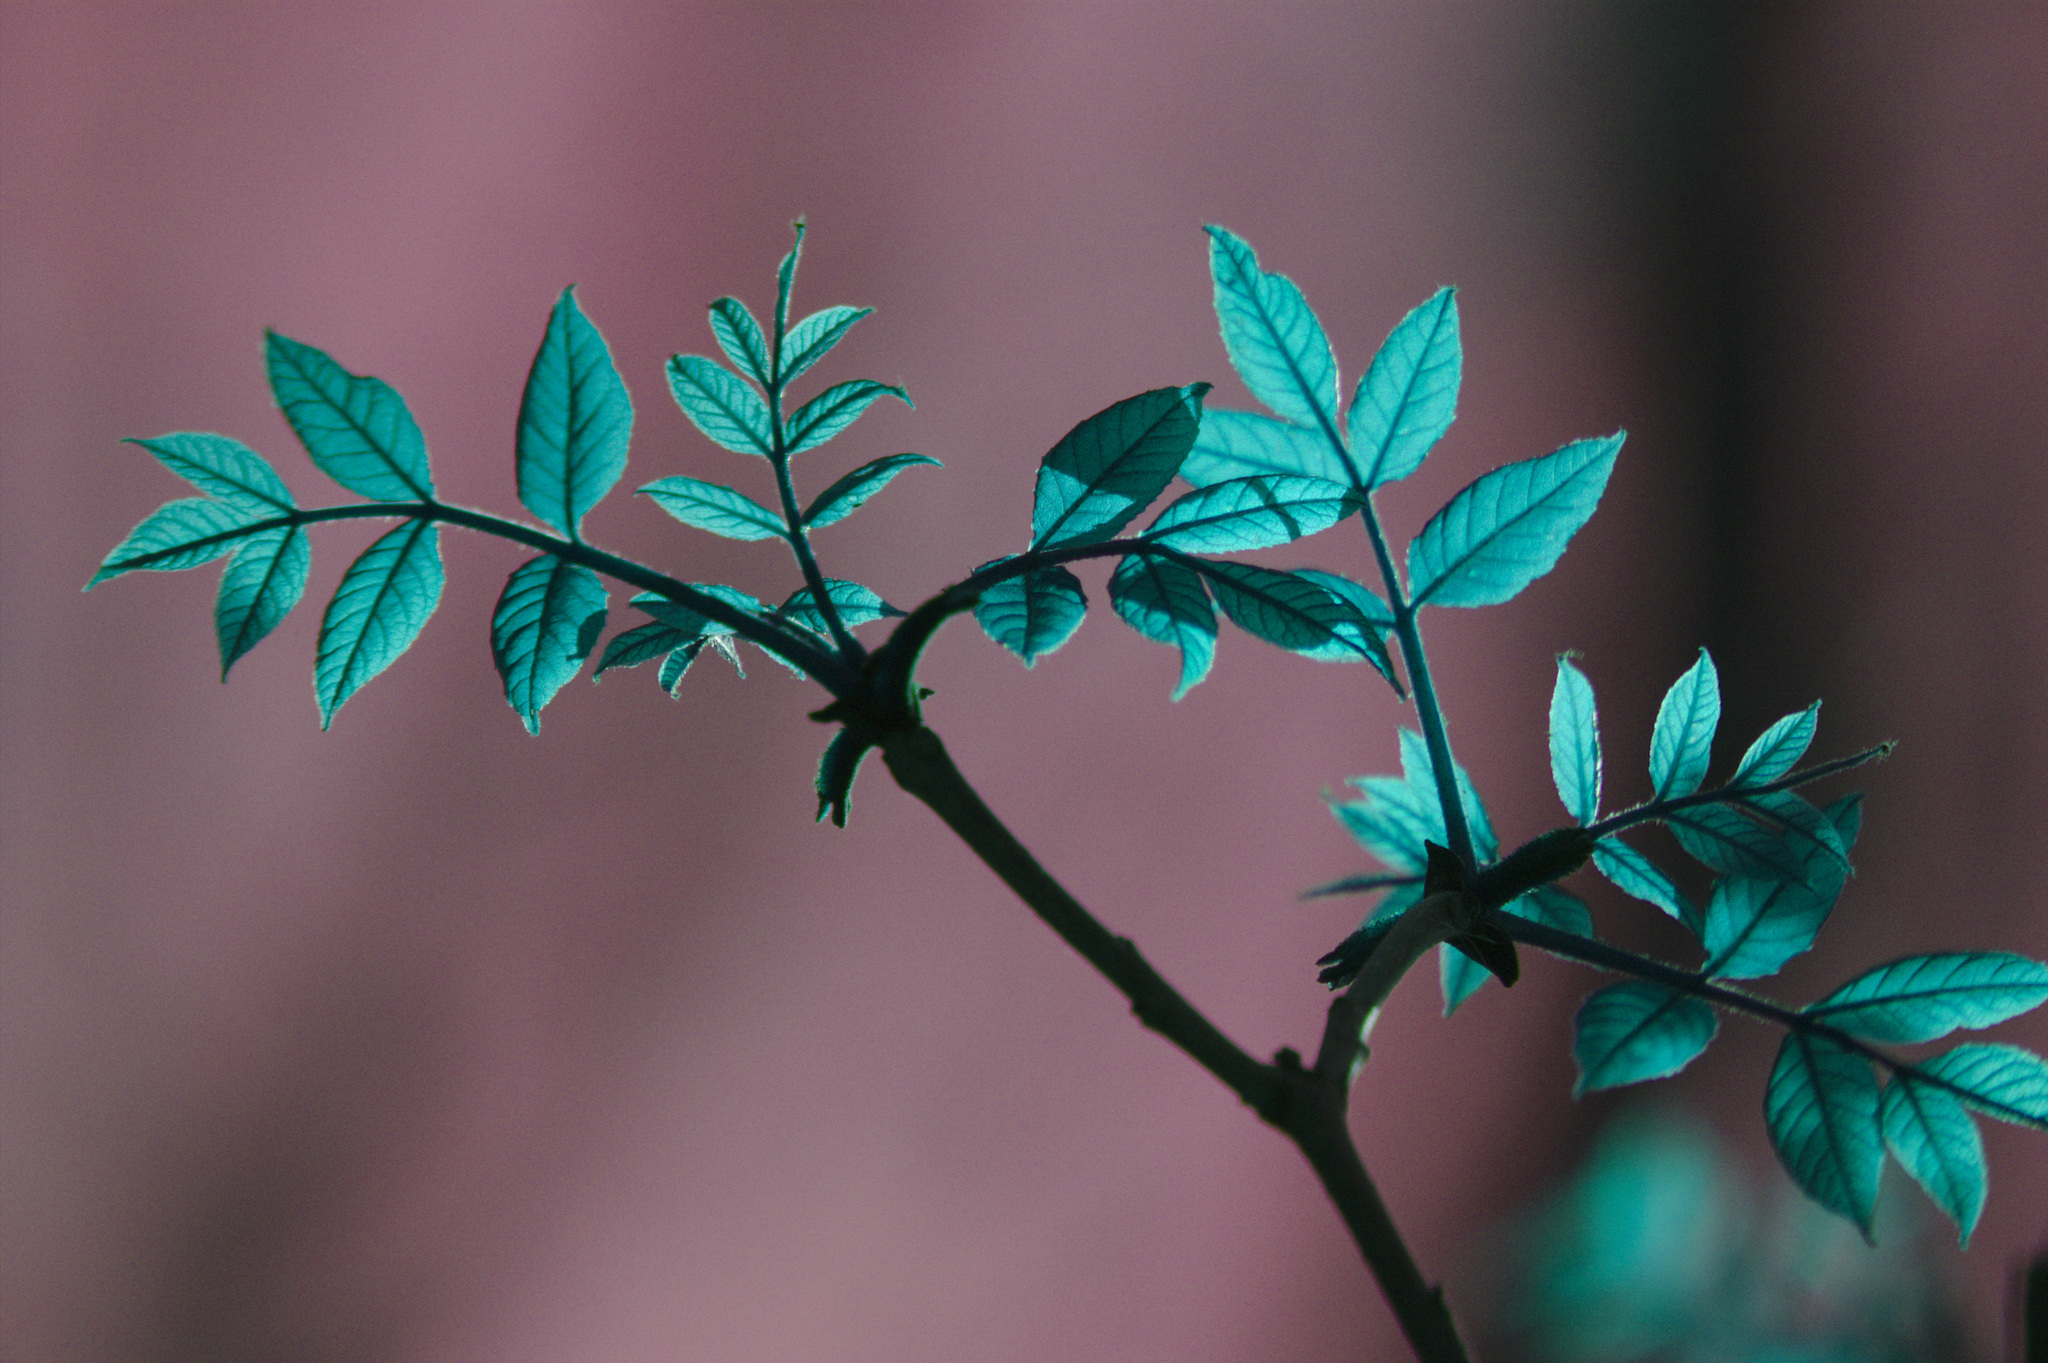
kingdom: Plantae
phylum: Tracheophyta
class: Magnoliopsida
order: Lamiales
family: Oleaceae
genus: Fraxinus
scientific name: Fraxinus pennsylvanica
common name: Green ash
